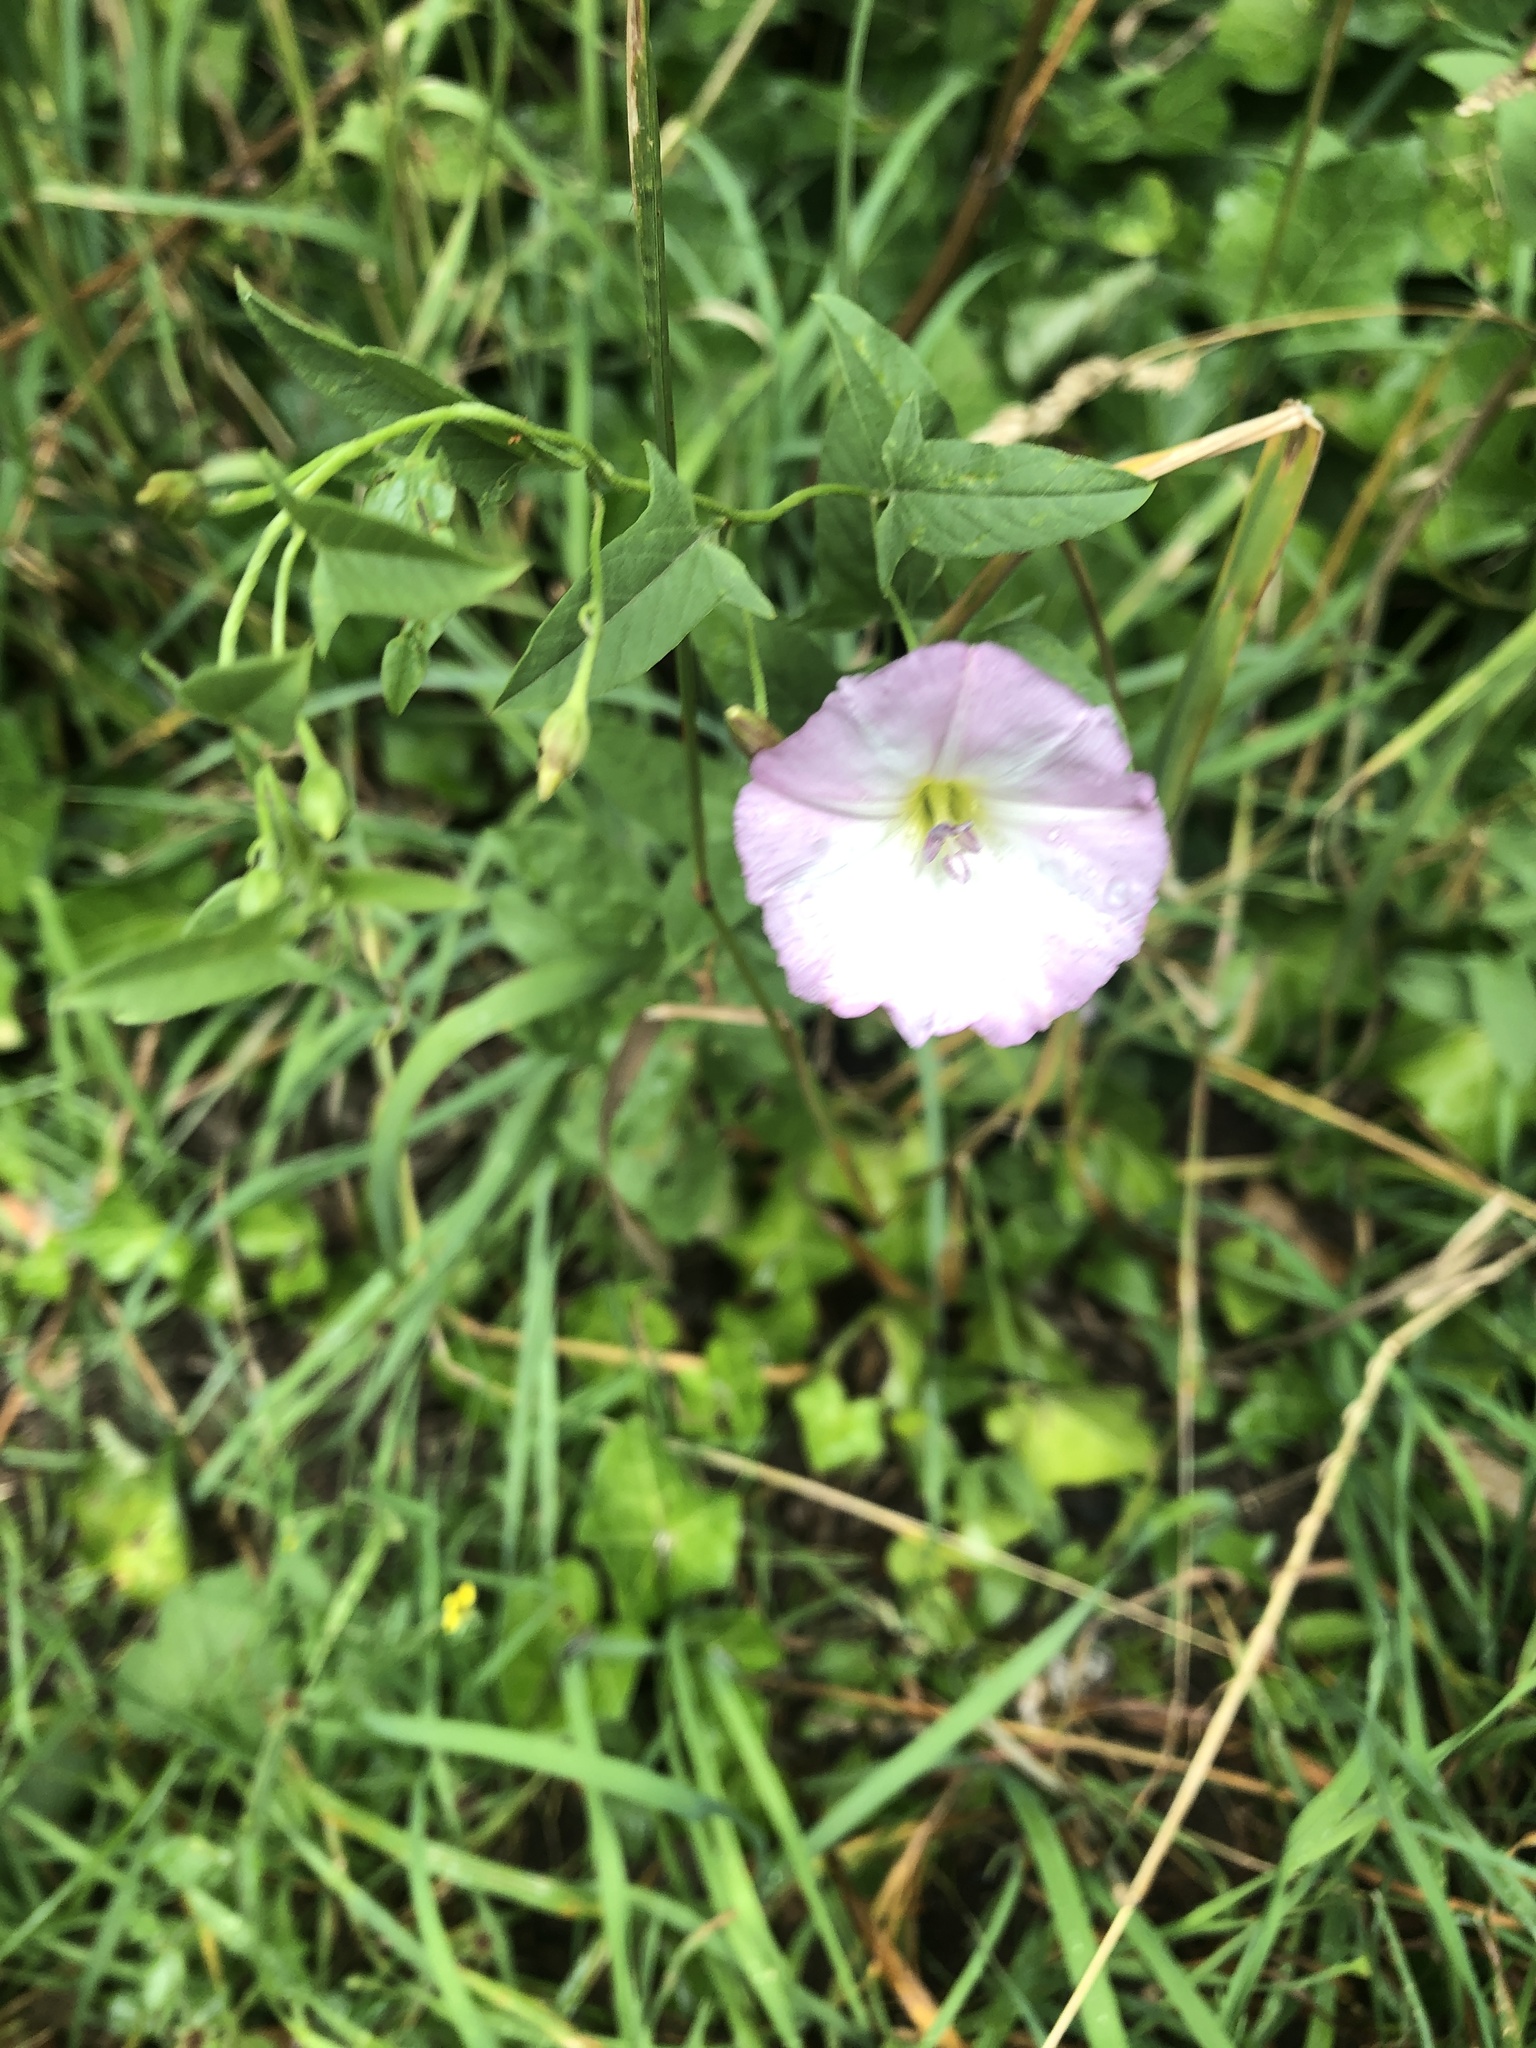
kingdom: Plantae
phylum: Tracheophyta
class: Magnoliopsida
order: Solanales
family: Convolvulaceae
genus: Convolvulus
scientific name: Convolvulus arvensis
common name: Field bindweed
